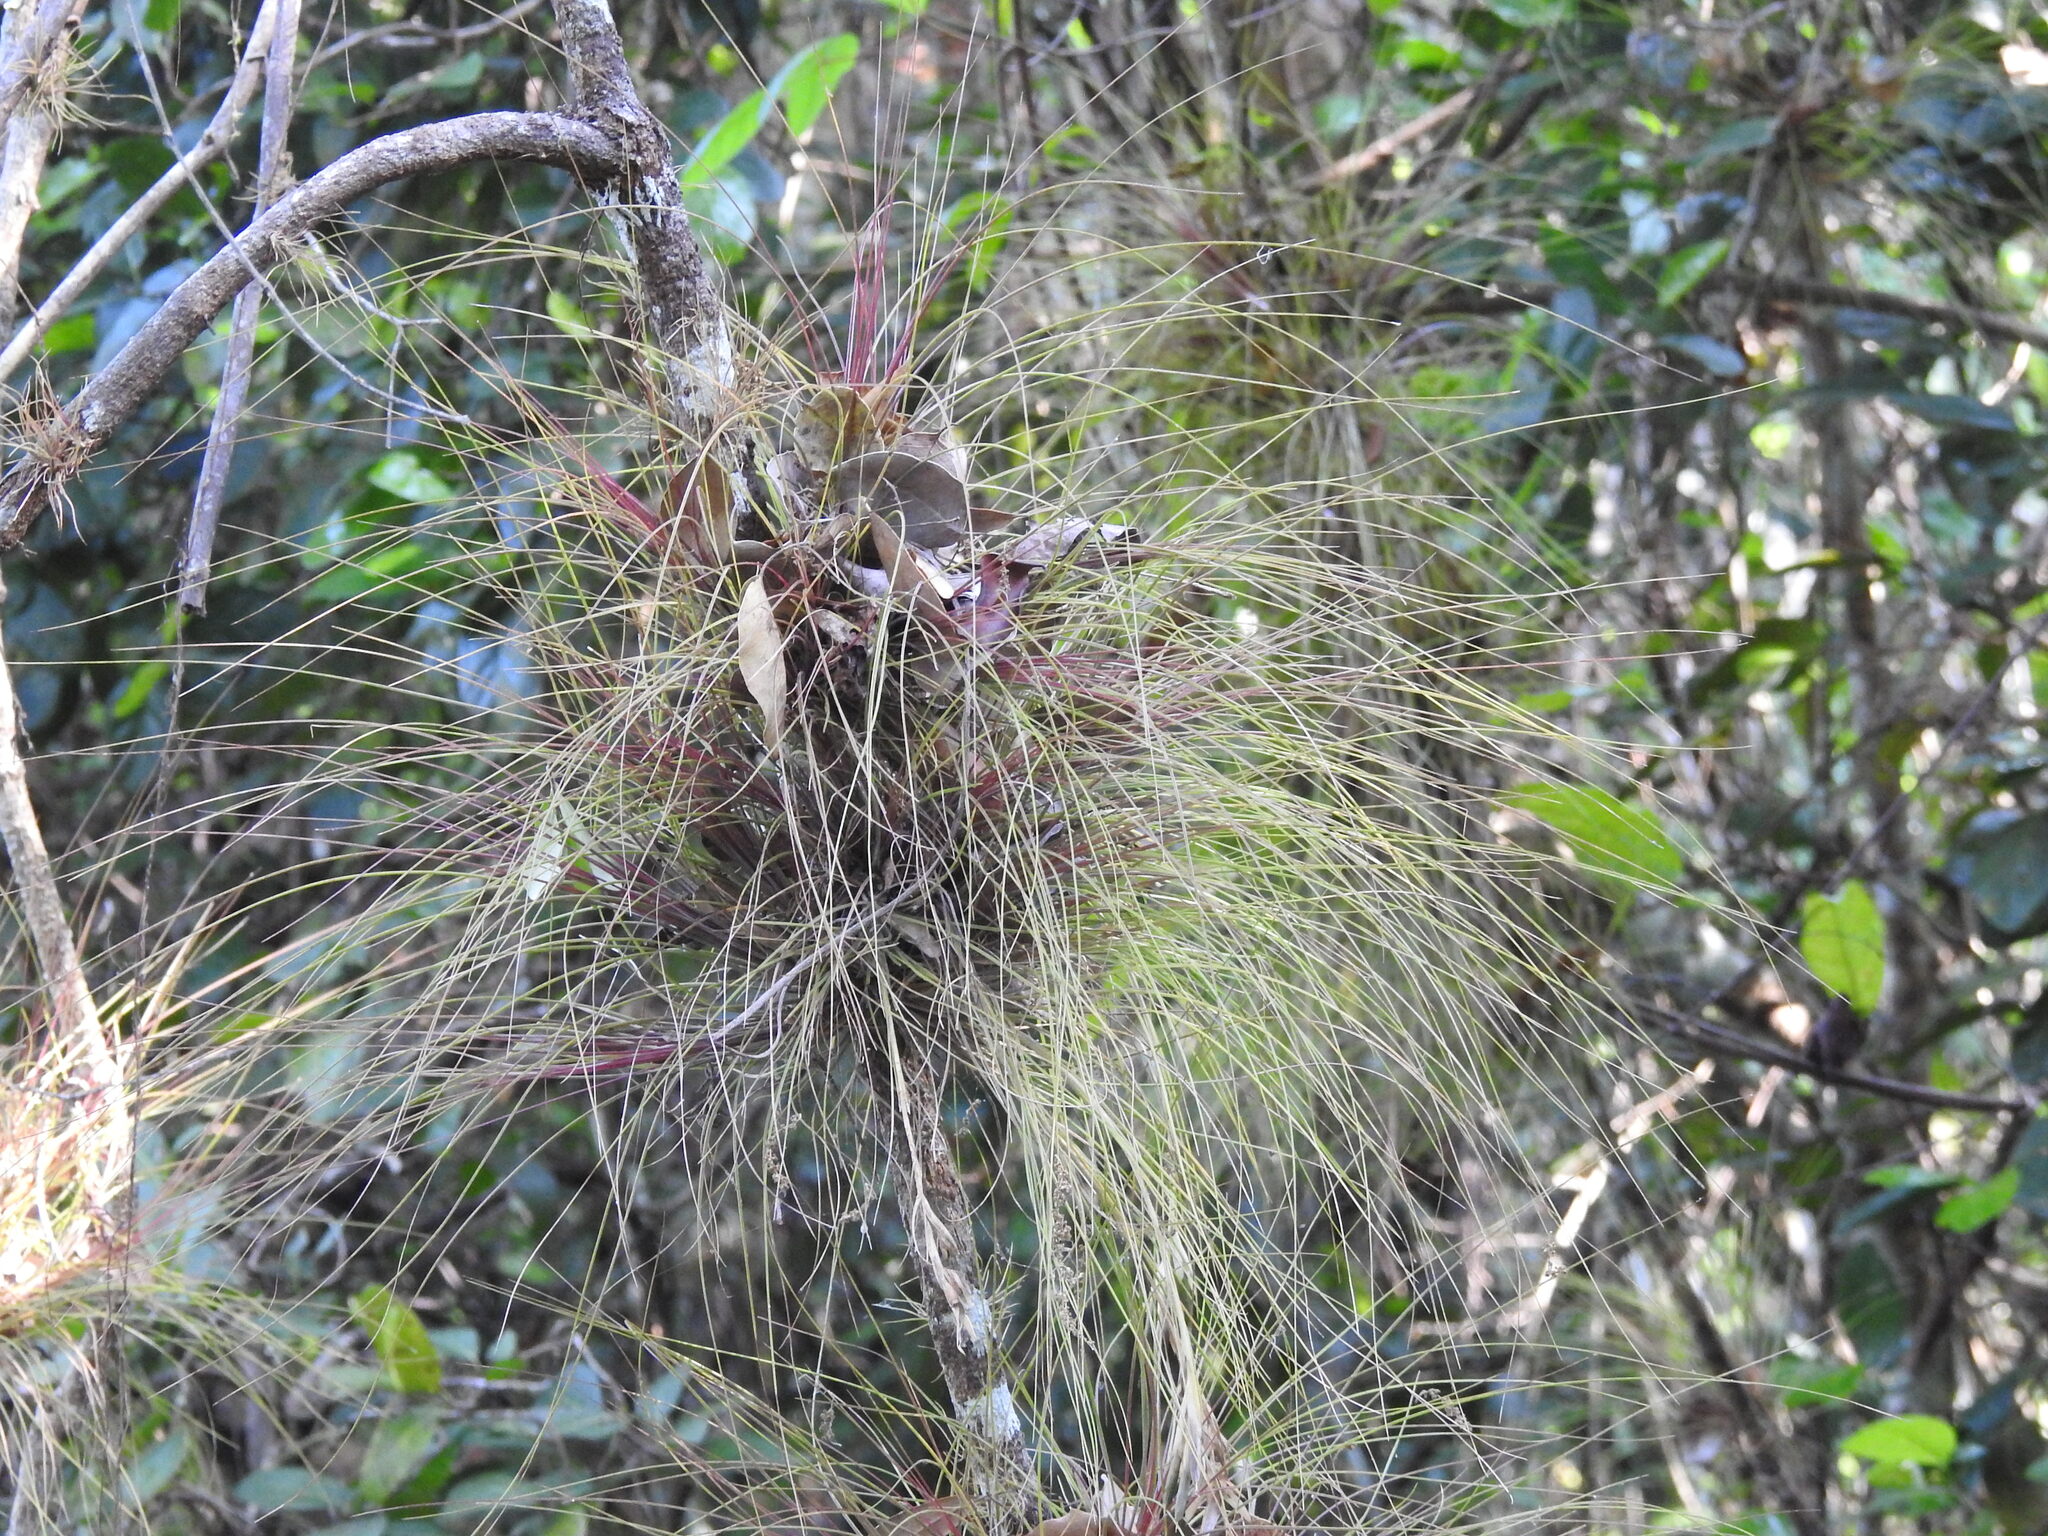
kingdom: Plantae
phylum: Tracheophyta
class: Liliopsida
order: Poales
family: Bromeliaceae
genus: Tillandsia
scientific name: Tillandsia setacea
